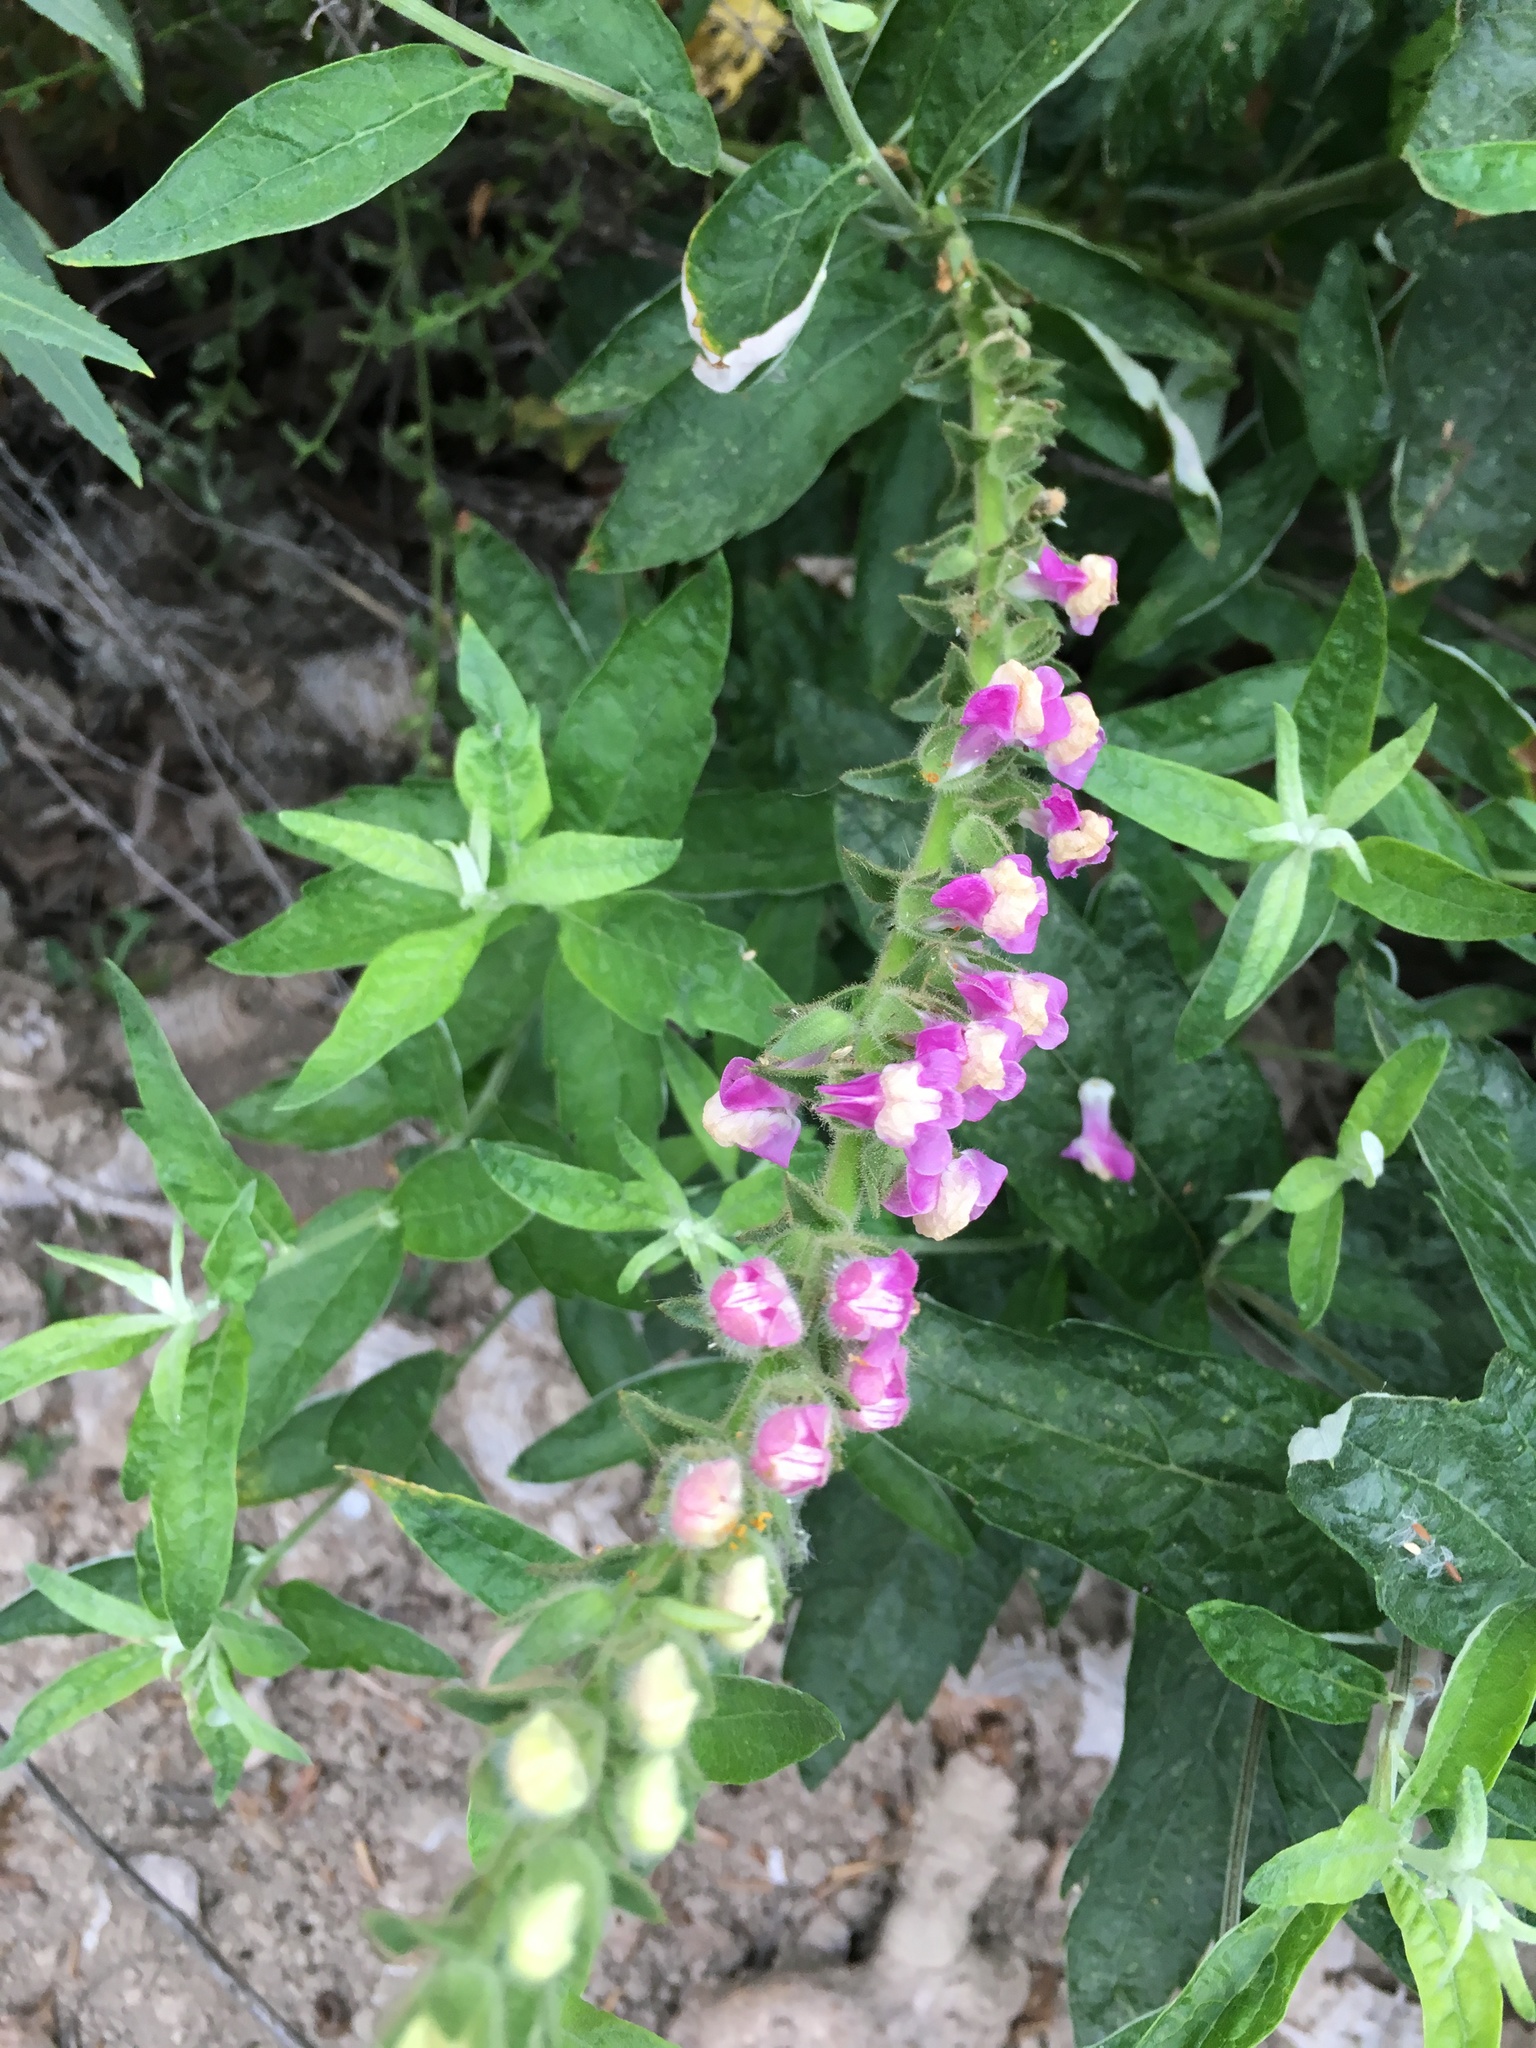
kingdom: Plantae
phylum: Tracheophyta
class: Magnoliopsida
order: Lamiales
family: Plantaginaceae
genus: Sairocarpus
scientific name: Sairocarpus multiflorus
